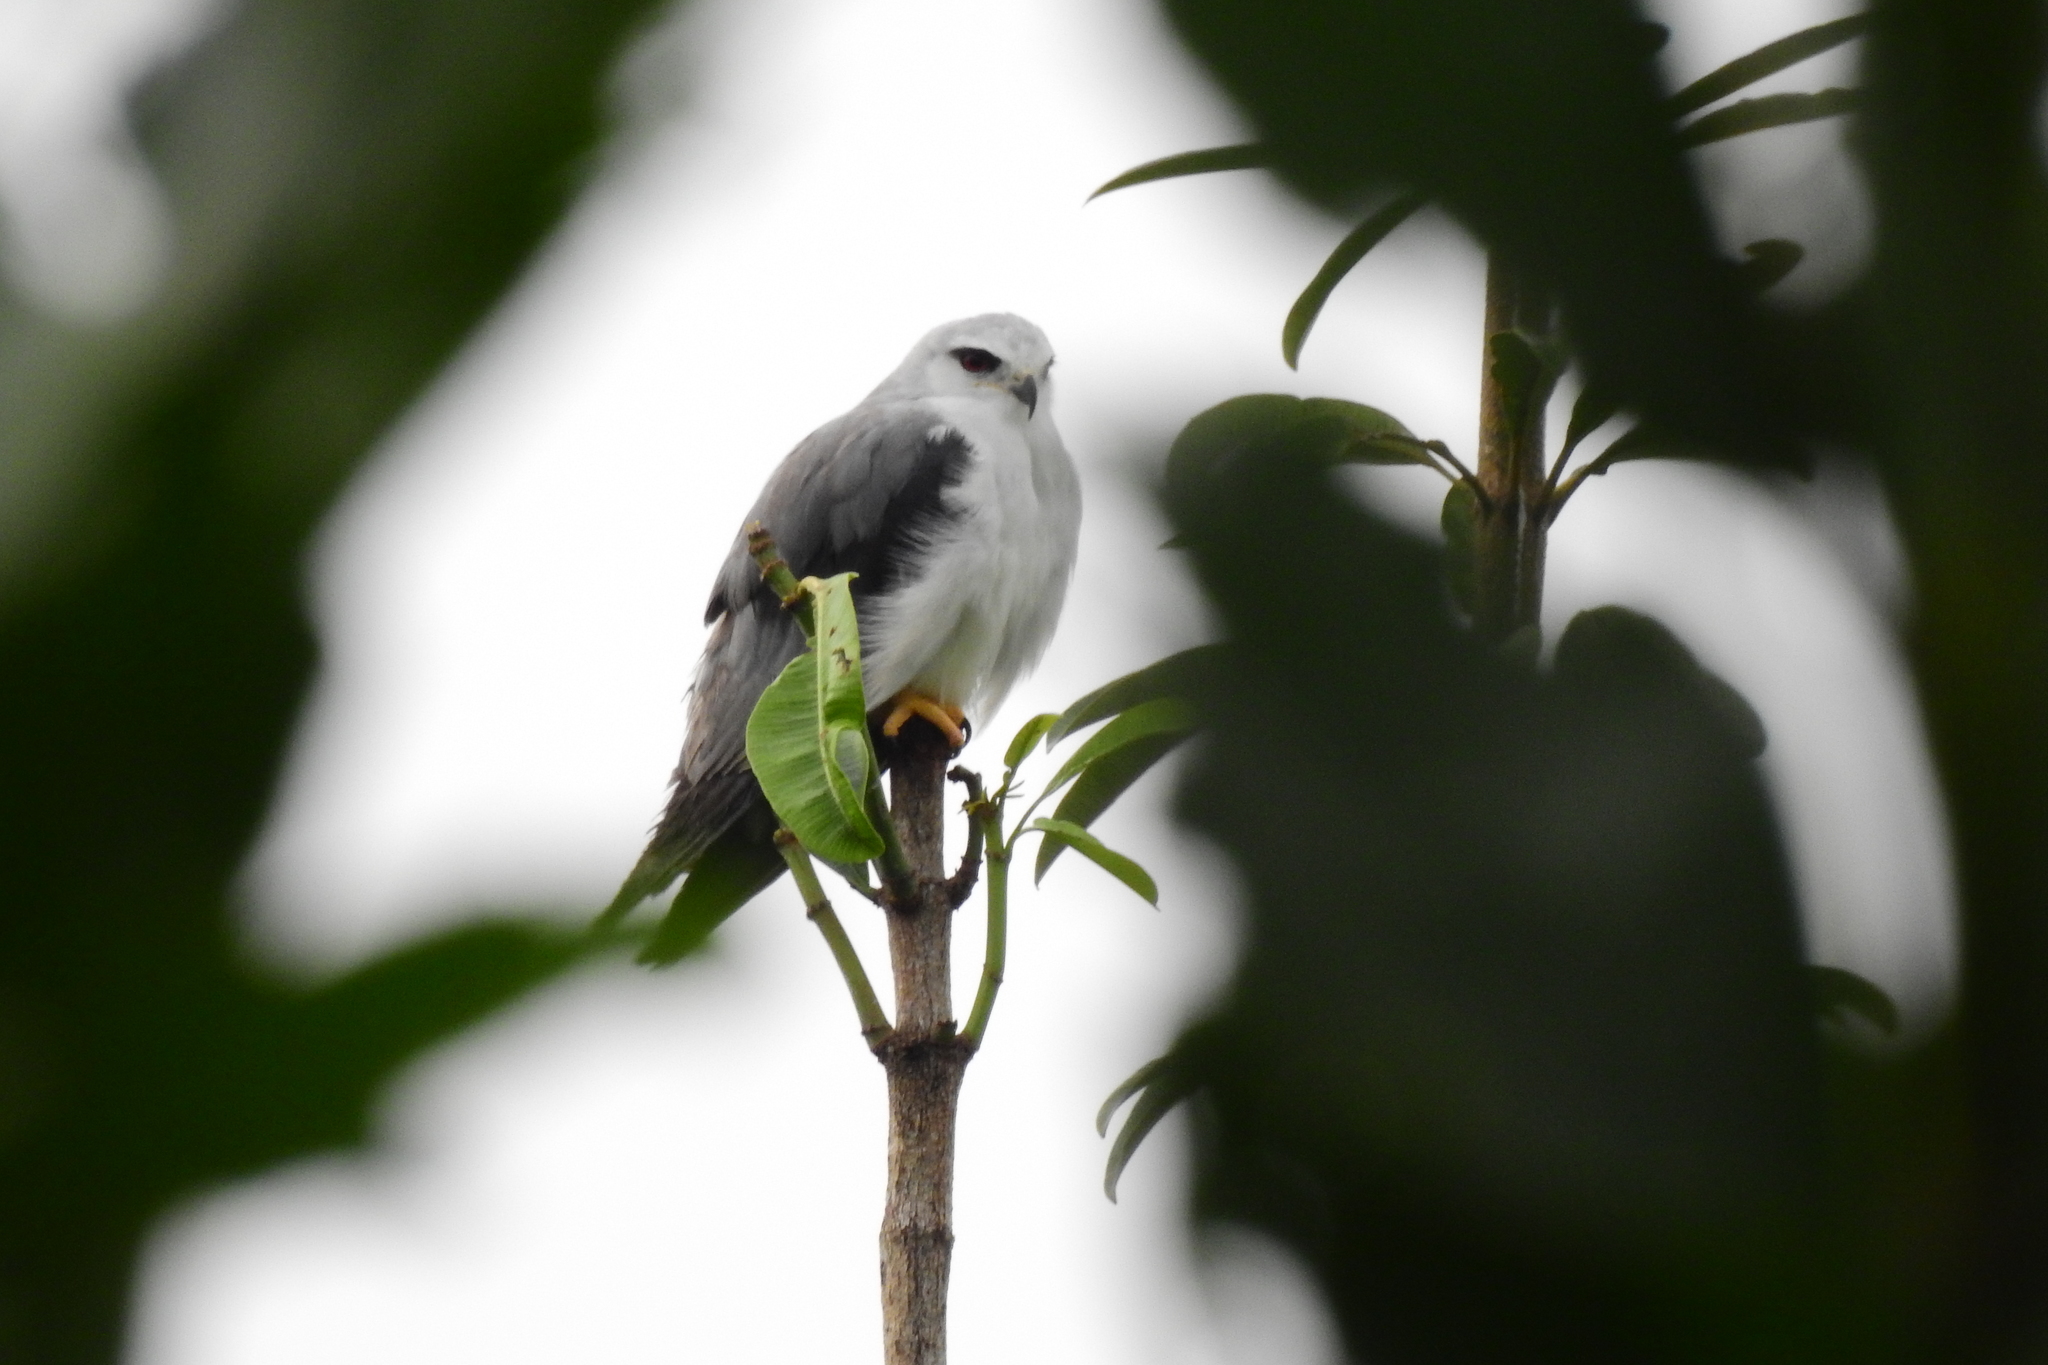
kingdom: Animalia
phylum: Chordata
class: Aves
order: Accipitriformes
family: Accipitridae
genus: Elanus
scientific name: Elanus caeruleus
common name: Black-winged kite
